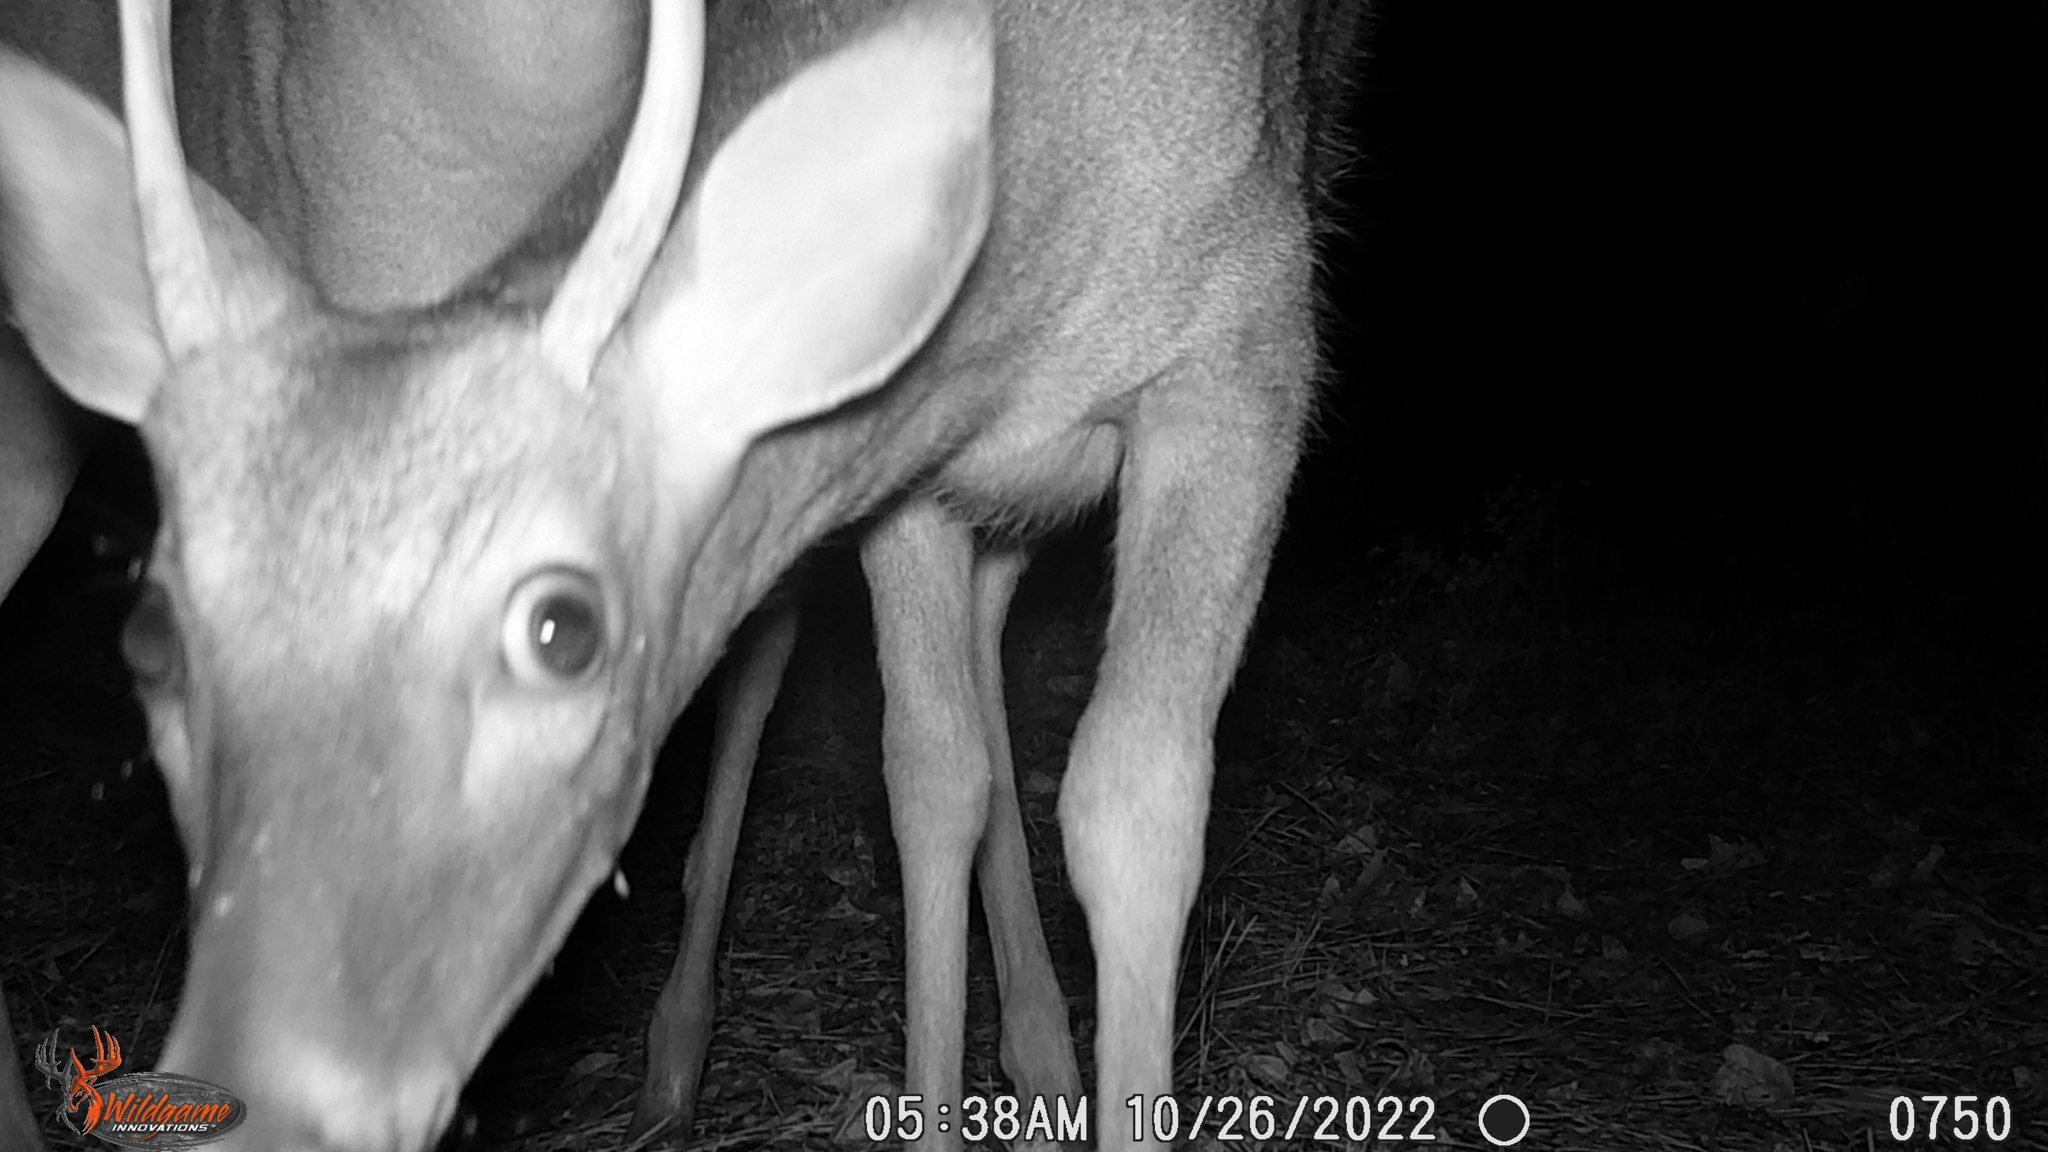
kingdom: Animalia
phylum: Chordata
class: Mammalia
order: Artiodactyla
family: Cervidae
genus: Odocoileus
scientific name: Odocoileus virginianus
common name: White-tailed deer
